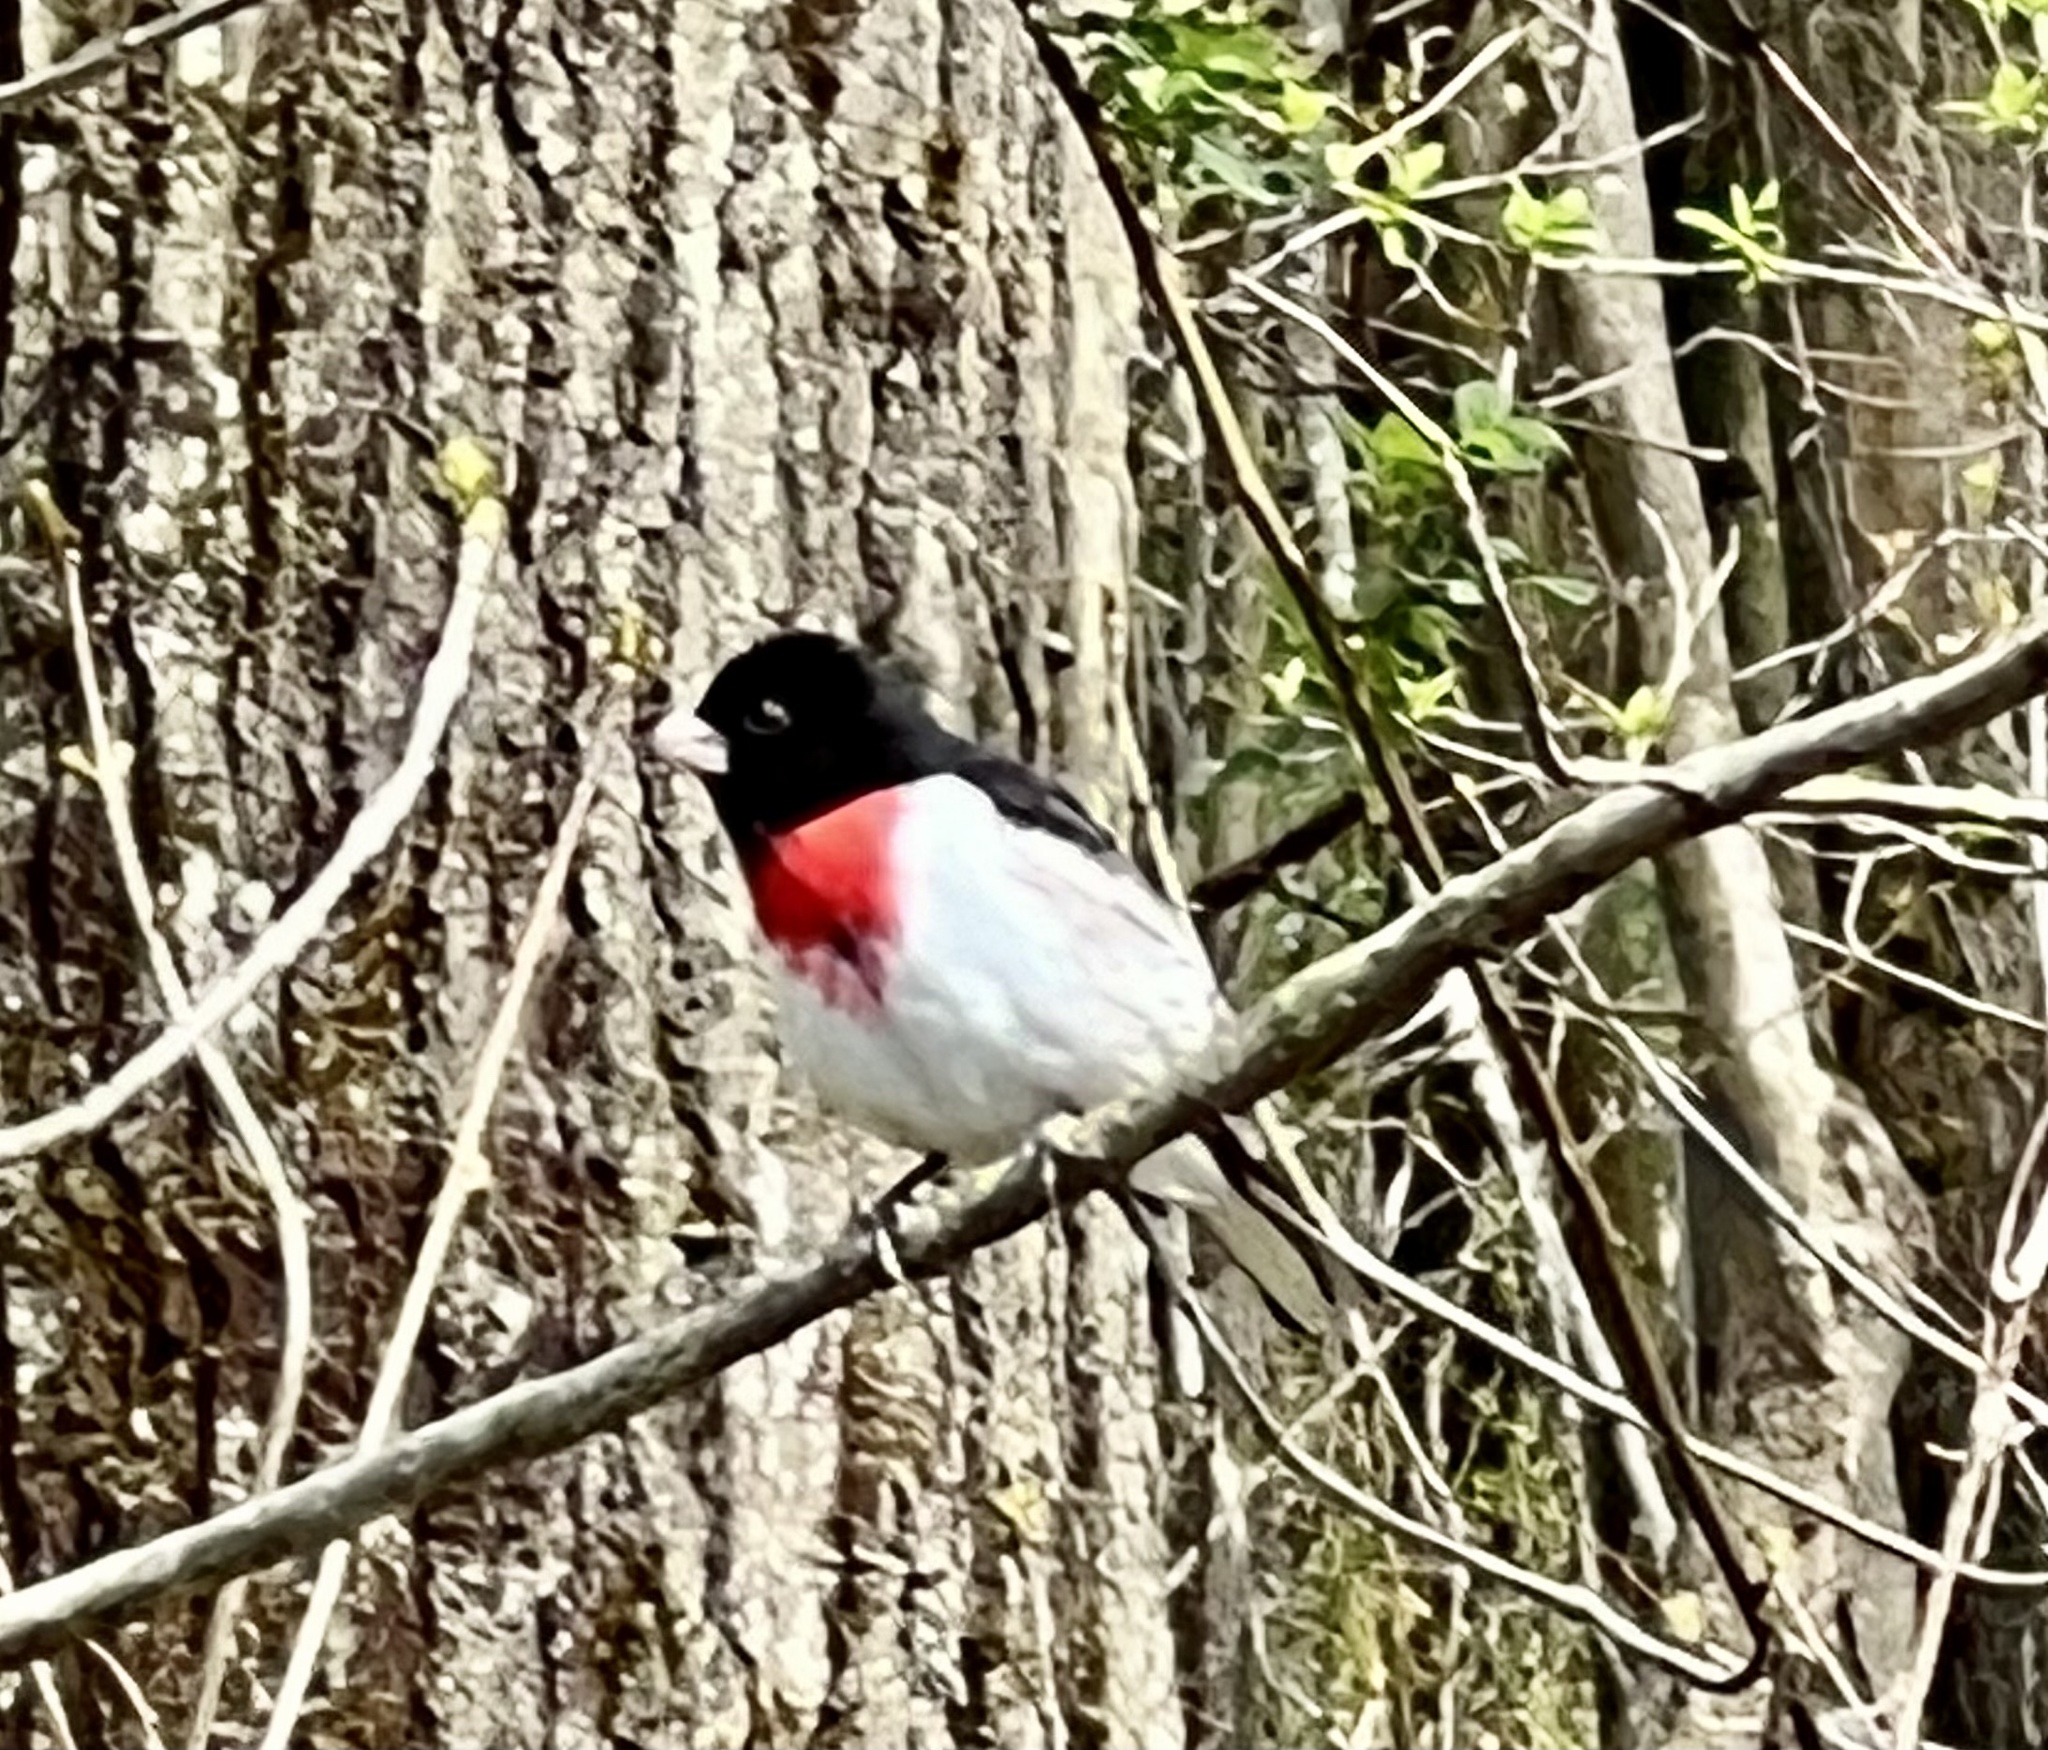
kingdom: Animalia
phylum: Chordata
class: Aves
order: Passeriformes
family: Cardinalidae
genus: Pheucticus
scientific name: Pheucticus ludovicianus
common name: Rose-breasted grosbeak
